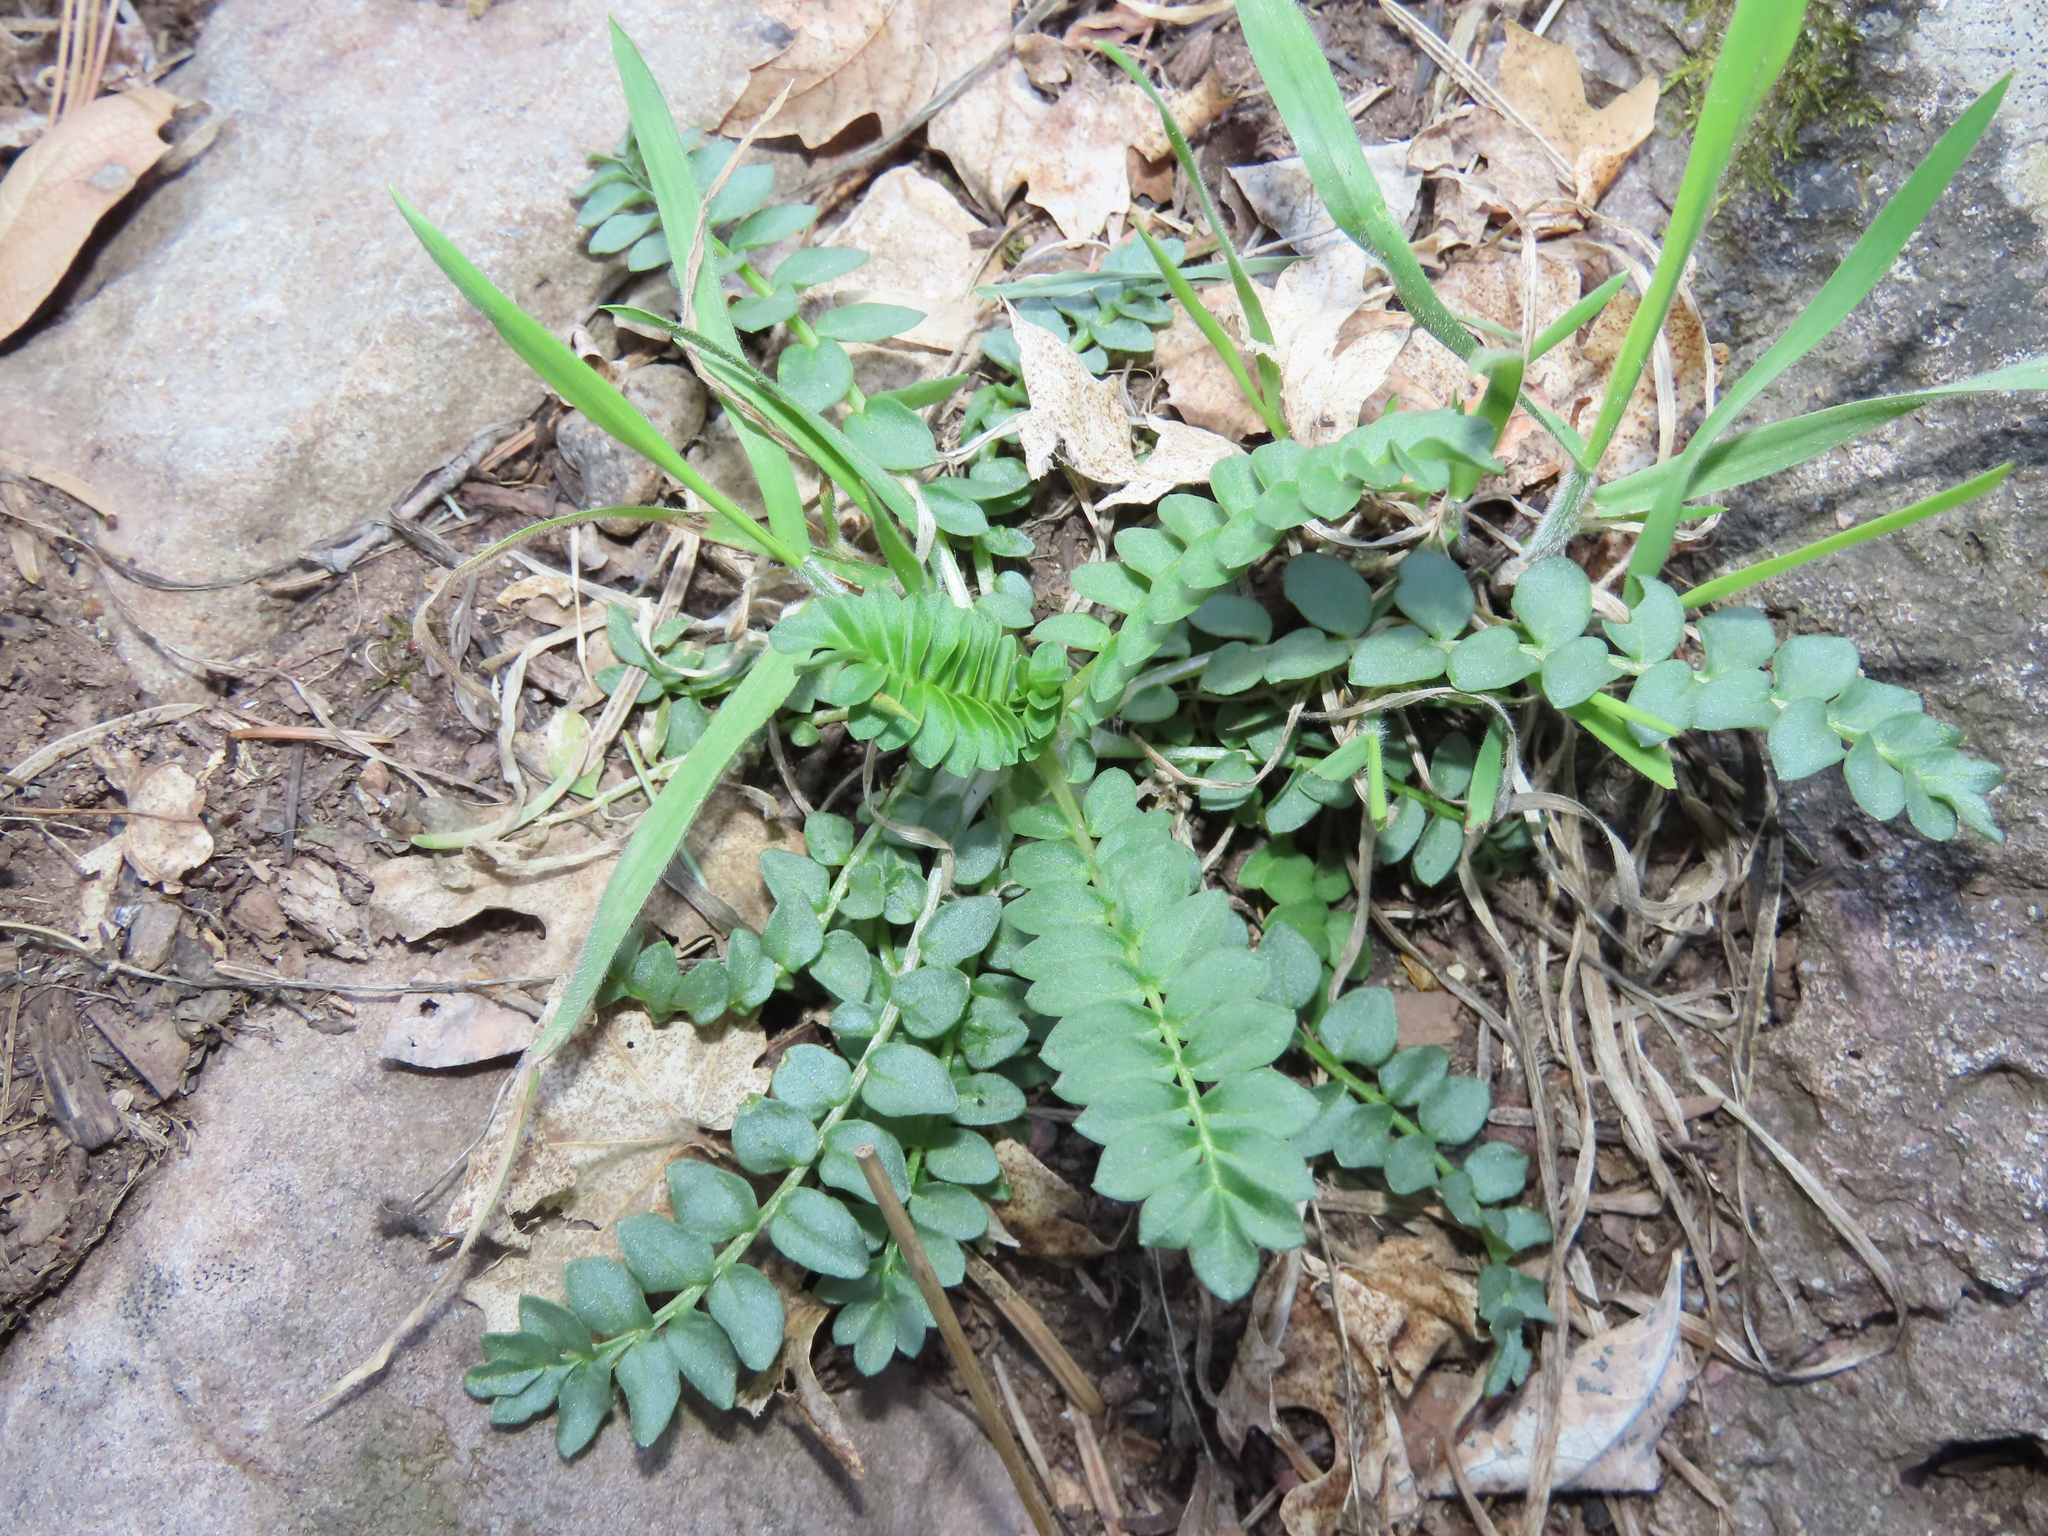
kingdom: Plantae
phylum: Tracheophyta
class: Magnoliopsida
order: Ericales
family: Polemoniaceae
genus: Polemonium
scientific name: Polemonium foliosissimum
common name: Leafy jacob's-ladder
